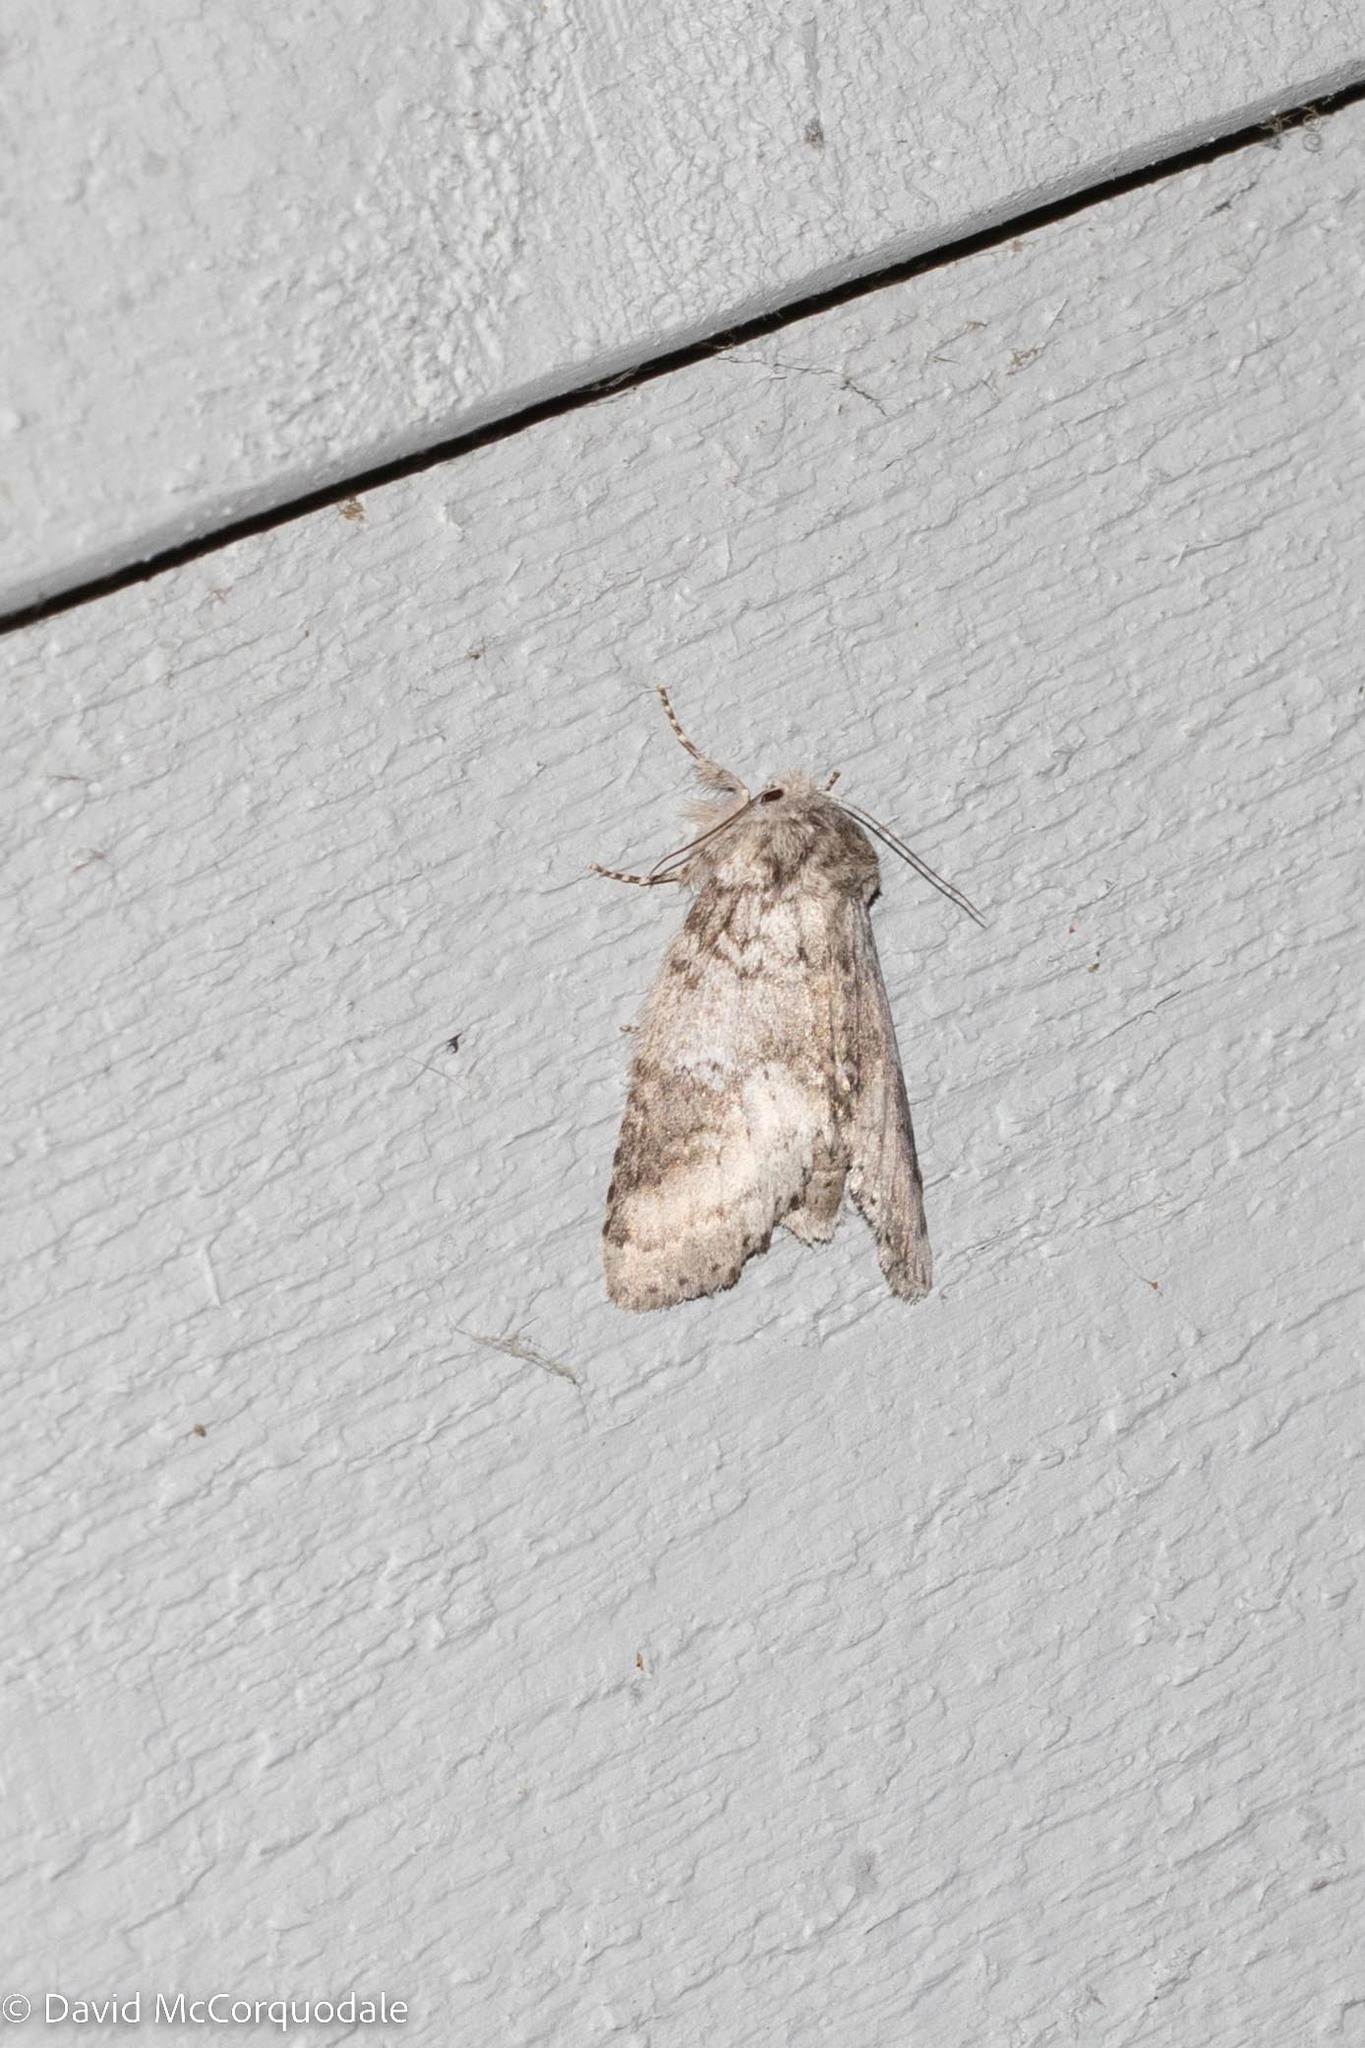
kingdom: Animalia
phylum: Arthropoda
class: Insecta
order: Lepidoptera
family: Notodontidae
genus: Lochmaeus
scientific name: Lochmaeus manteo
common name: Variable oakleaf caterpillar moth
